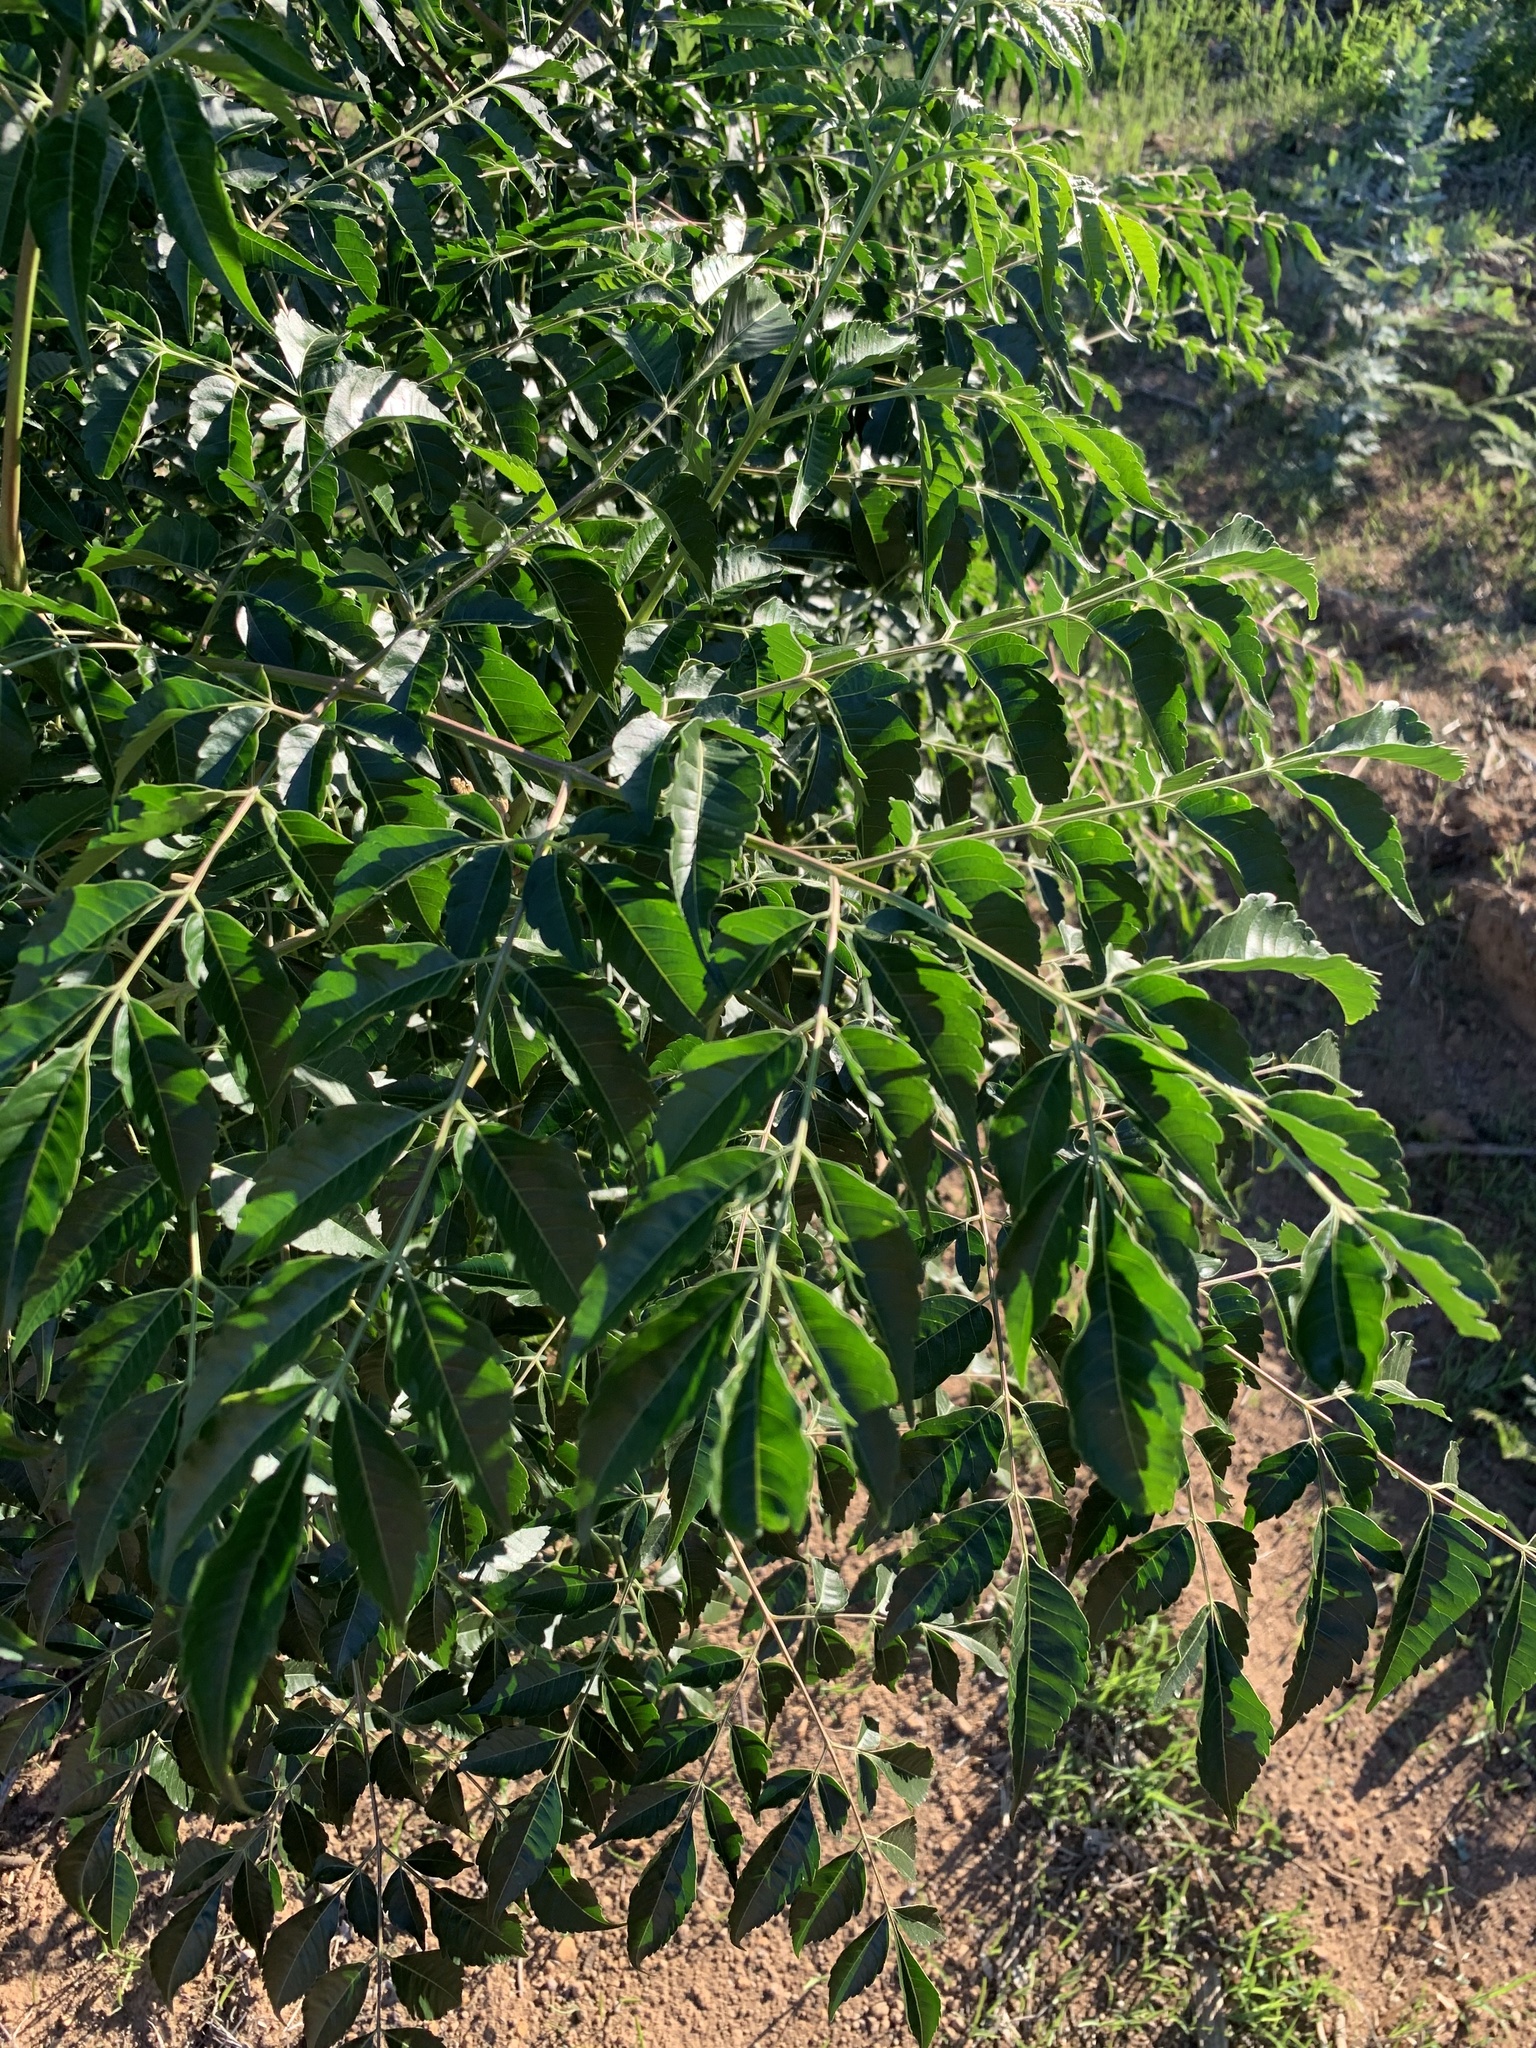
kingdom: Plantae
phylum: Tracheophyta
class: Magnoliopsida
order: Sapindales
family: Meliaceae
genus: Melia
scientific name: Melia azedarach
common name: Chinaberrytree
